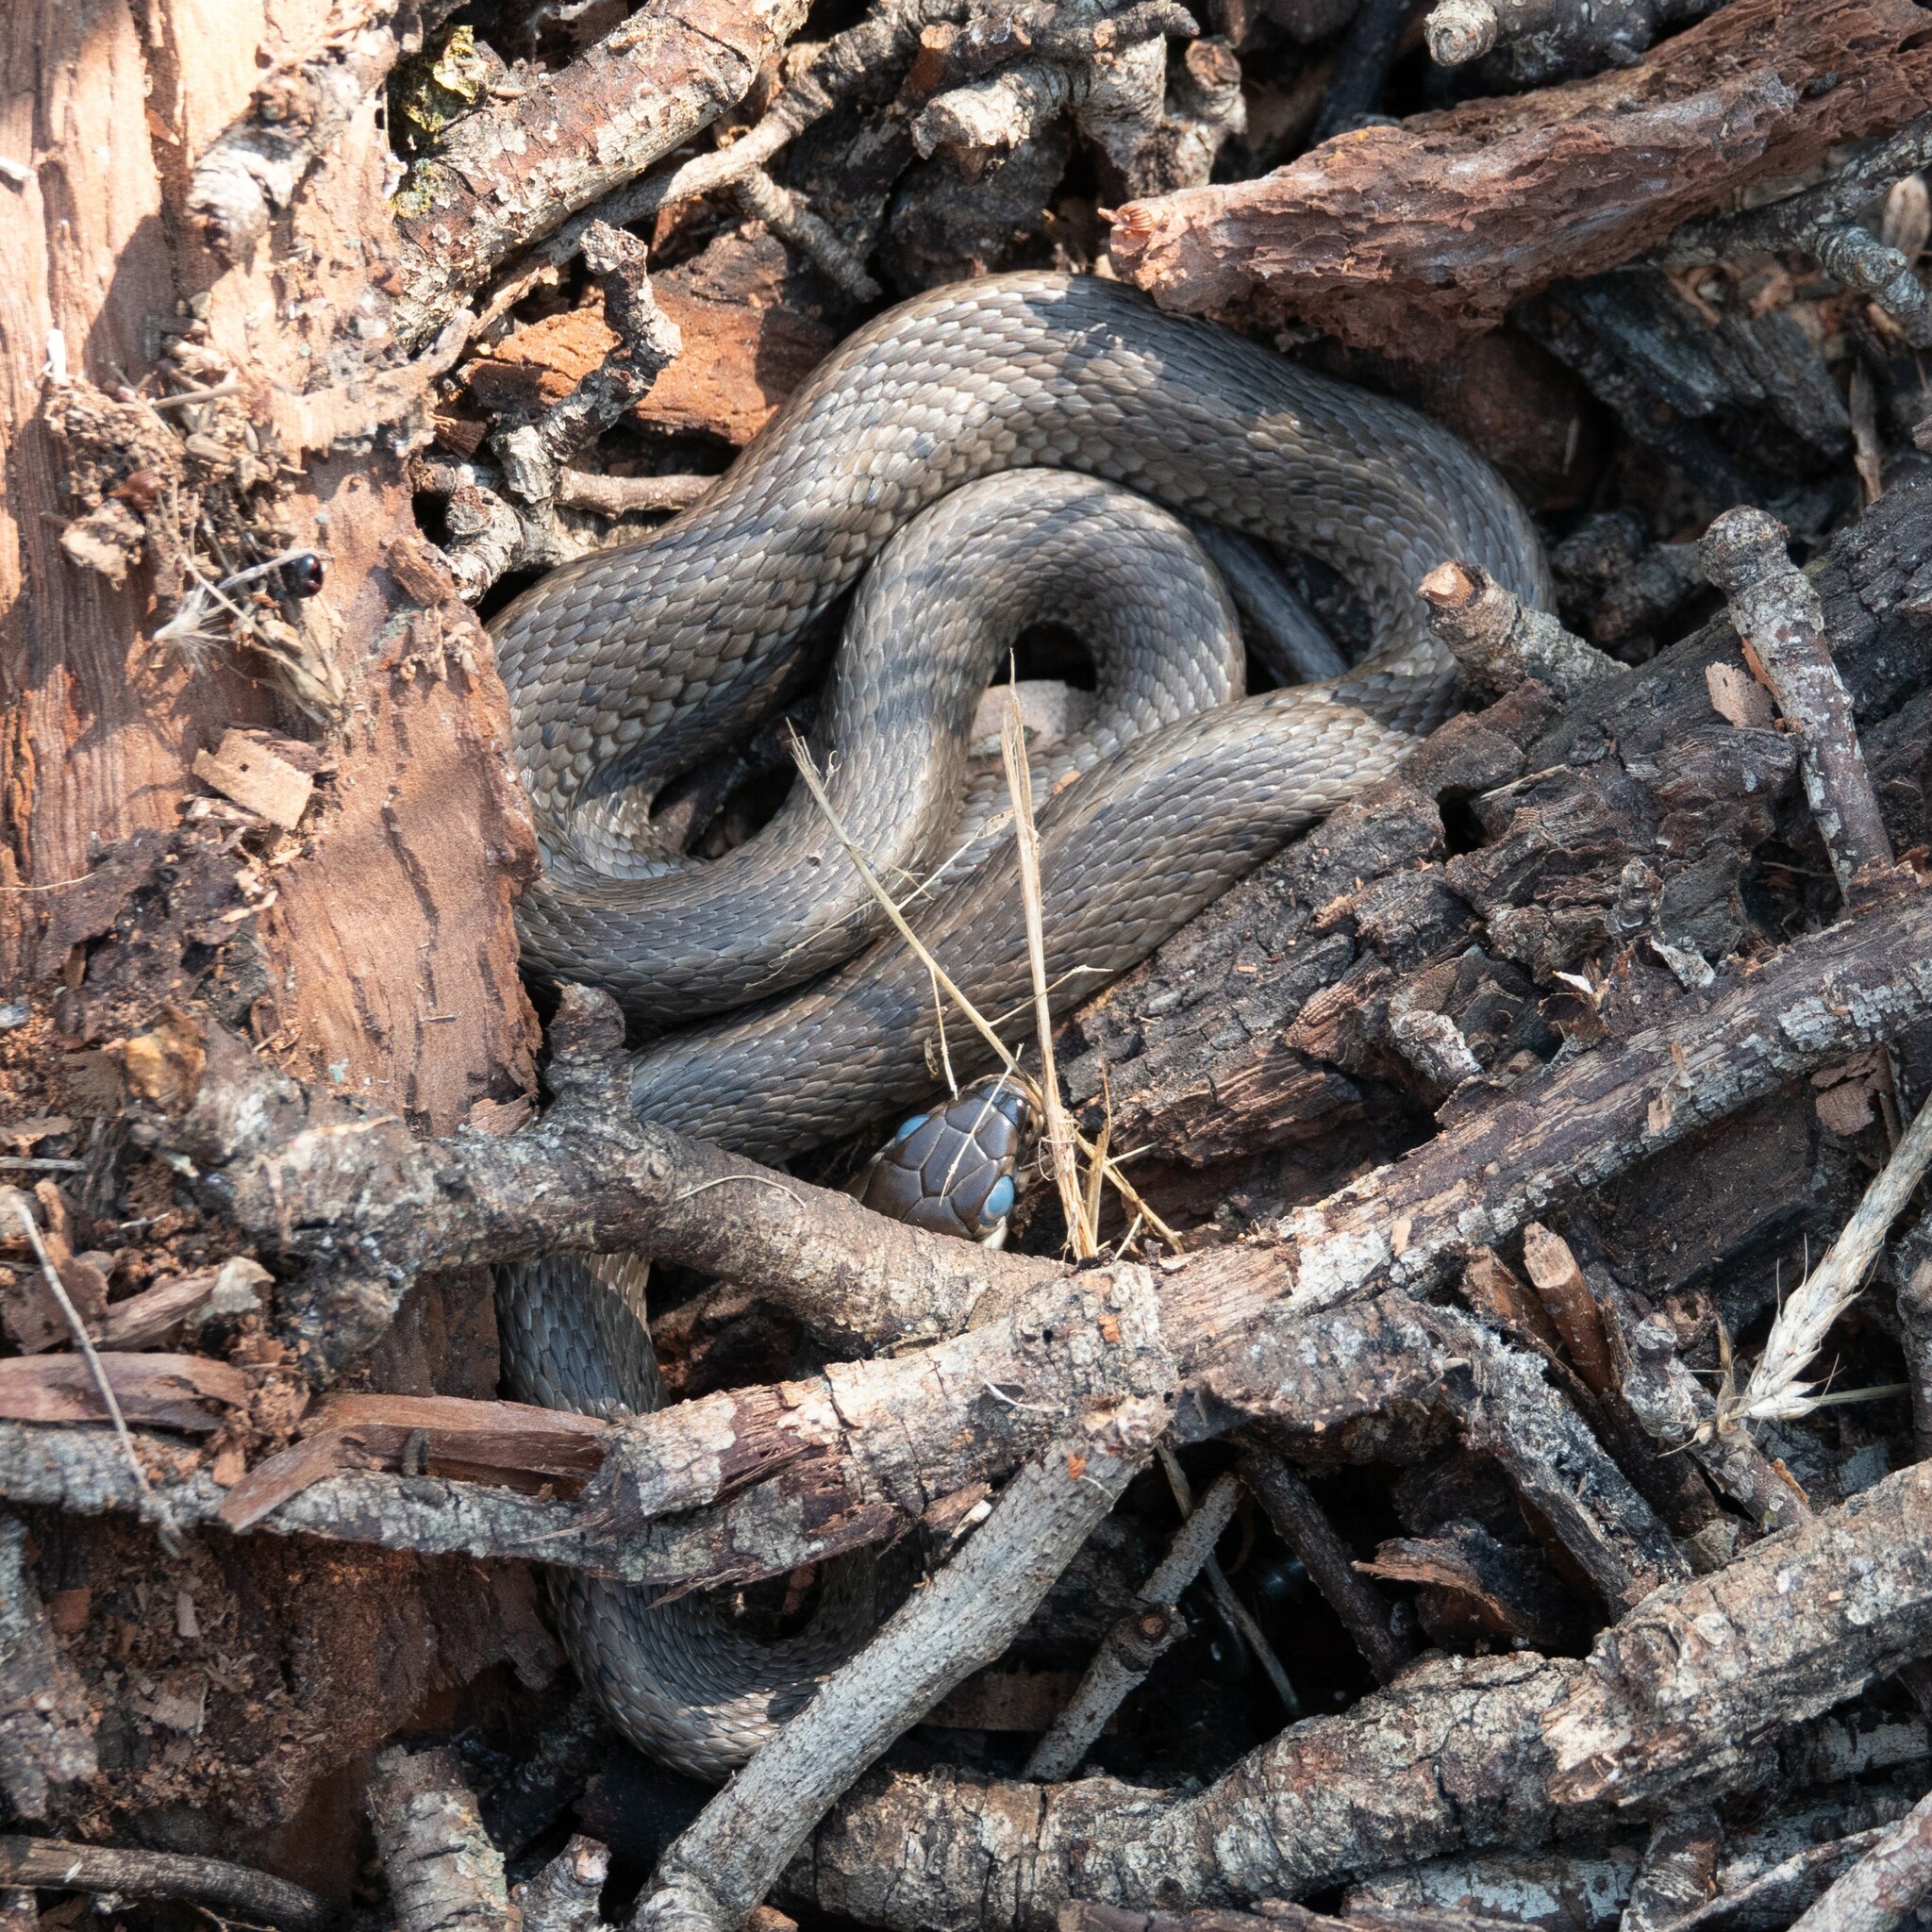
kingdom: Animalia
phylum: Chordata
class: Squamata
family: Colubridae
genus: Natrix
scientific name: Natrix natrix
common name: Grass snake
